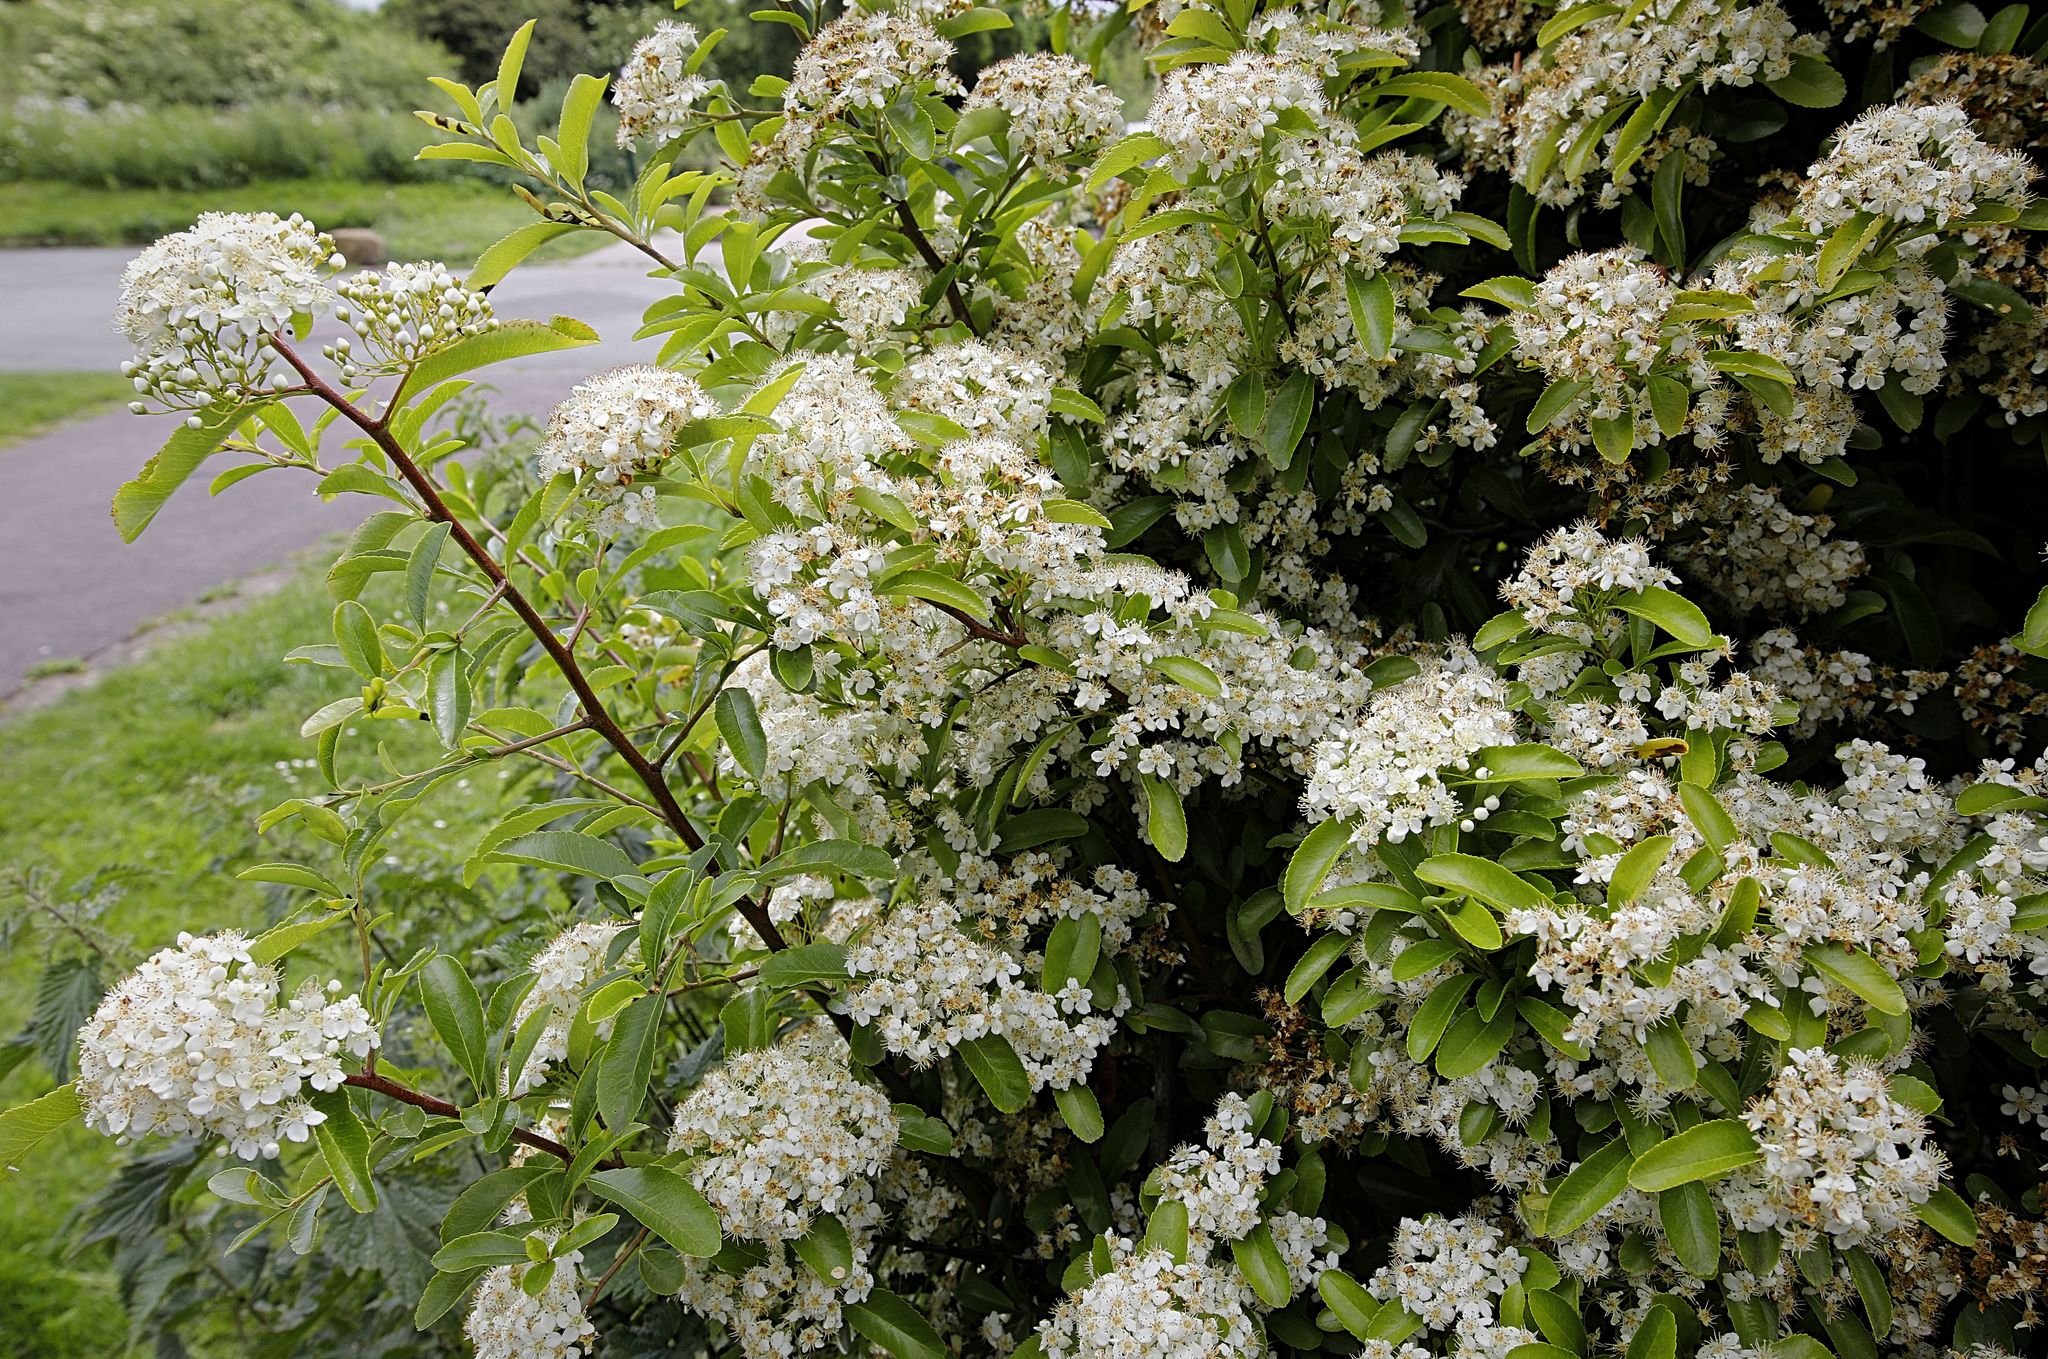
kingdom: Plantae
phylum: Tracheophyta
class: Magnoliopsida
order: Rosales
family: Rosaceae
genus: Pyracantha
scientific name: Pyracantha coccinea
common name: Firethorn
